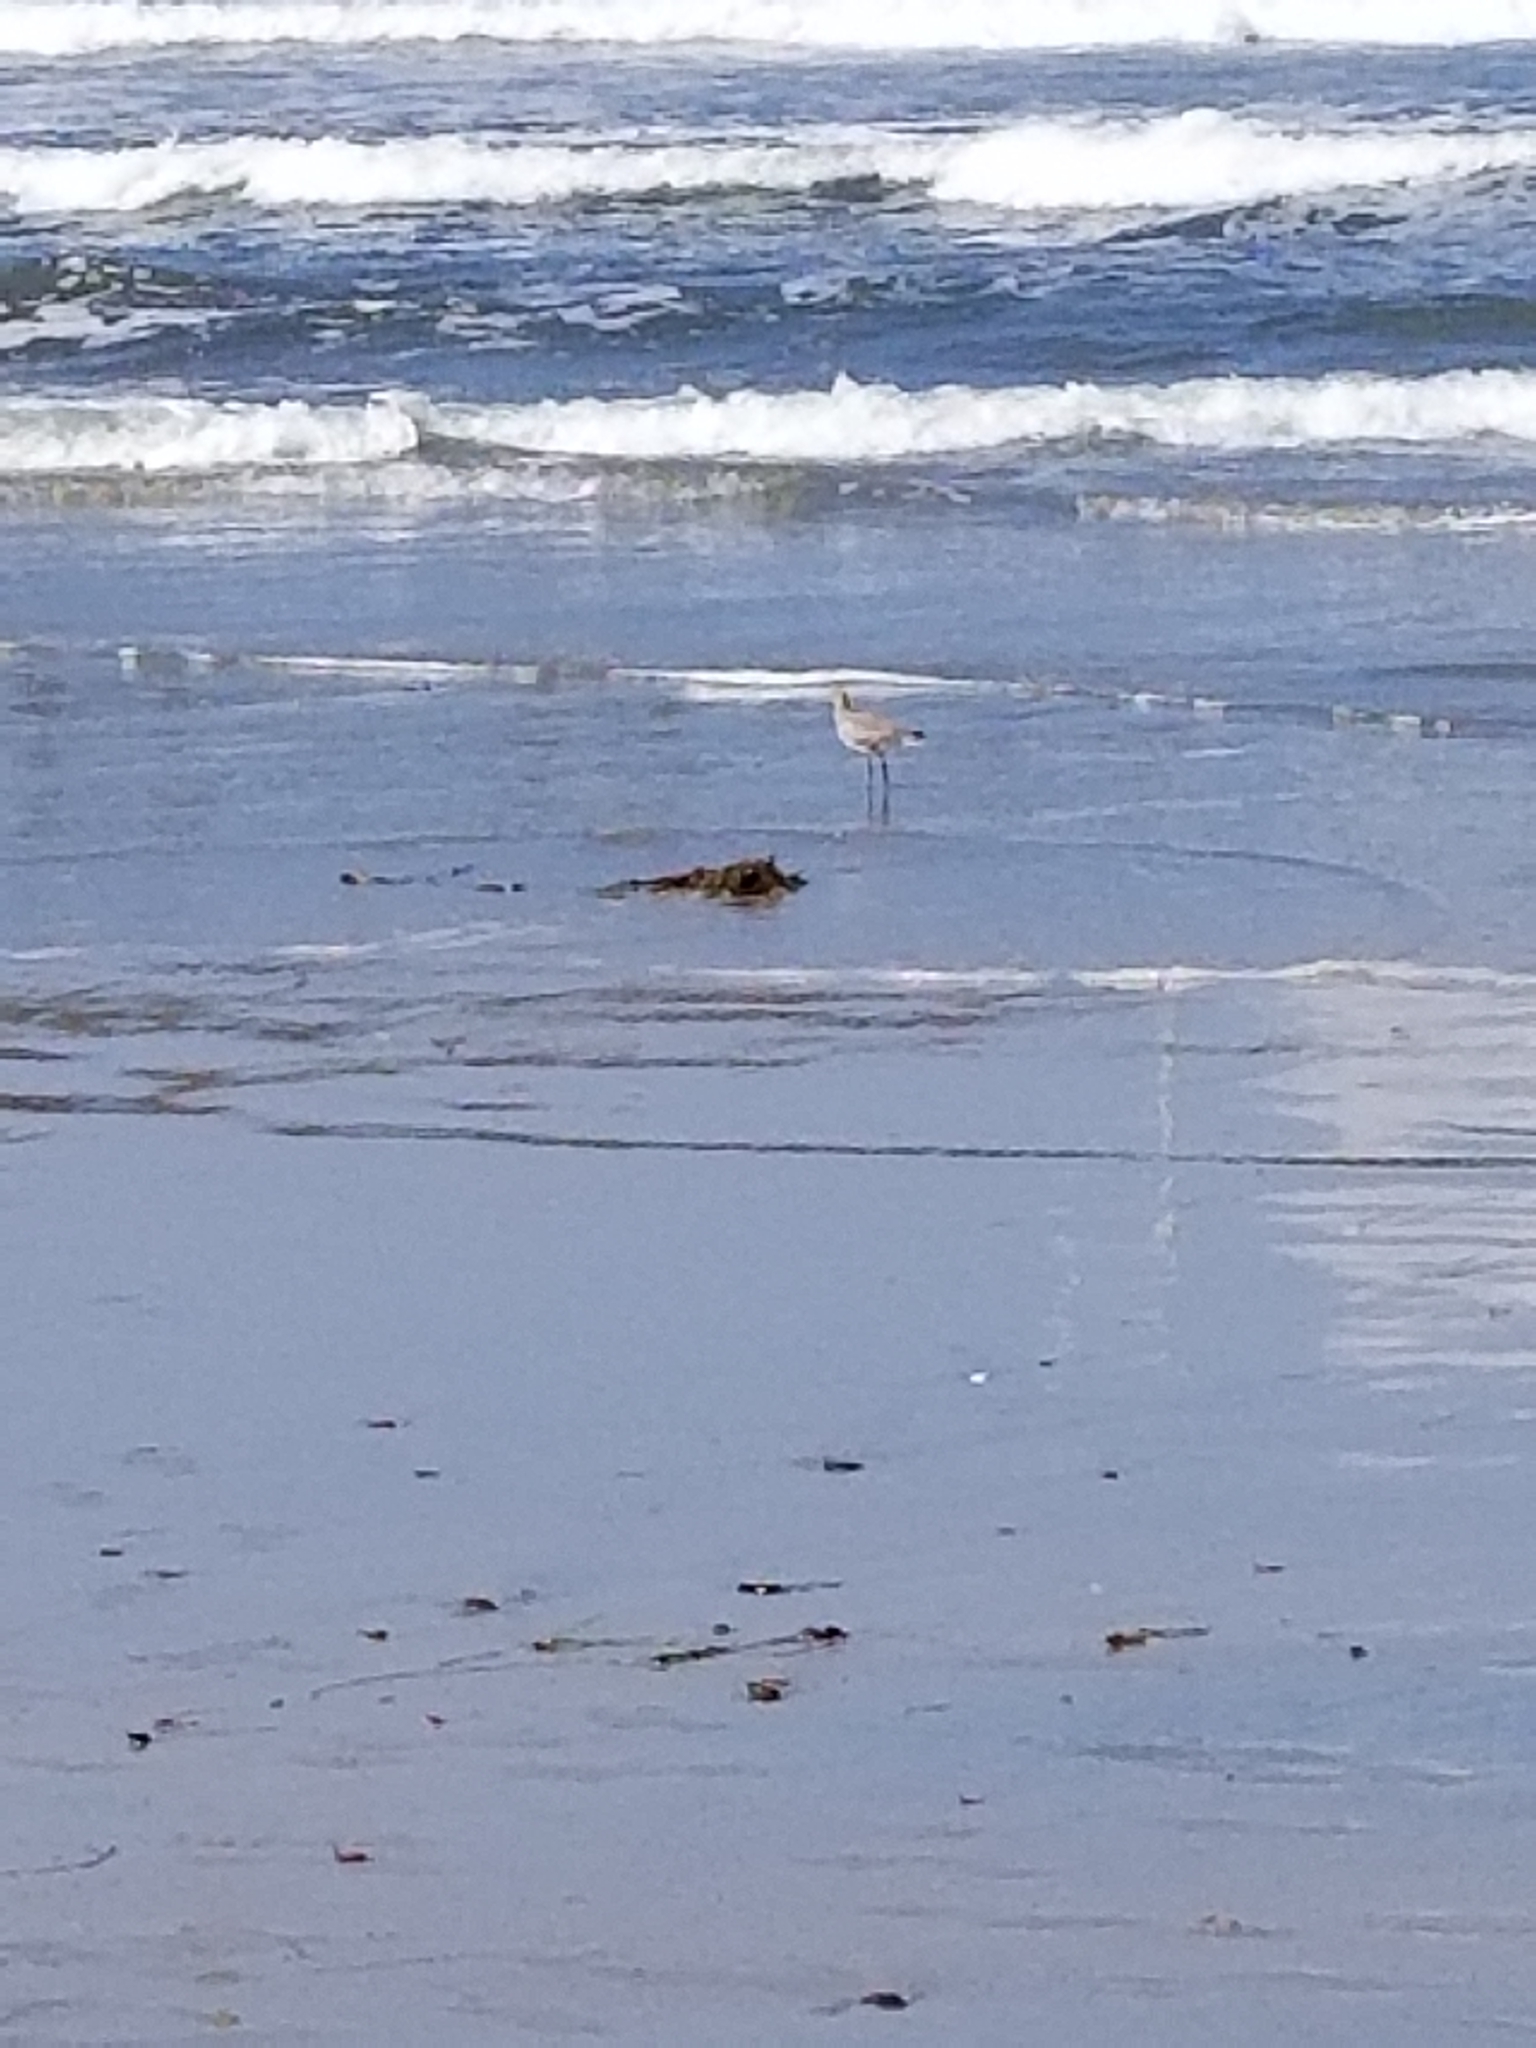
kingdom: Animalia
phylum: Chordata
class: Aves
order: Charadriiformes
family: Scolopacidae
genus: Tringa
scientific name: Tringa semipalmata
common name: Willet
